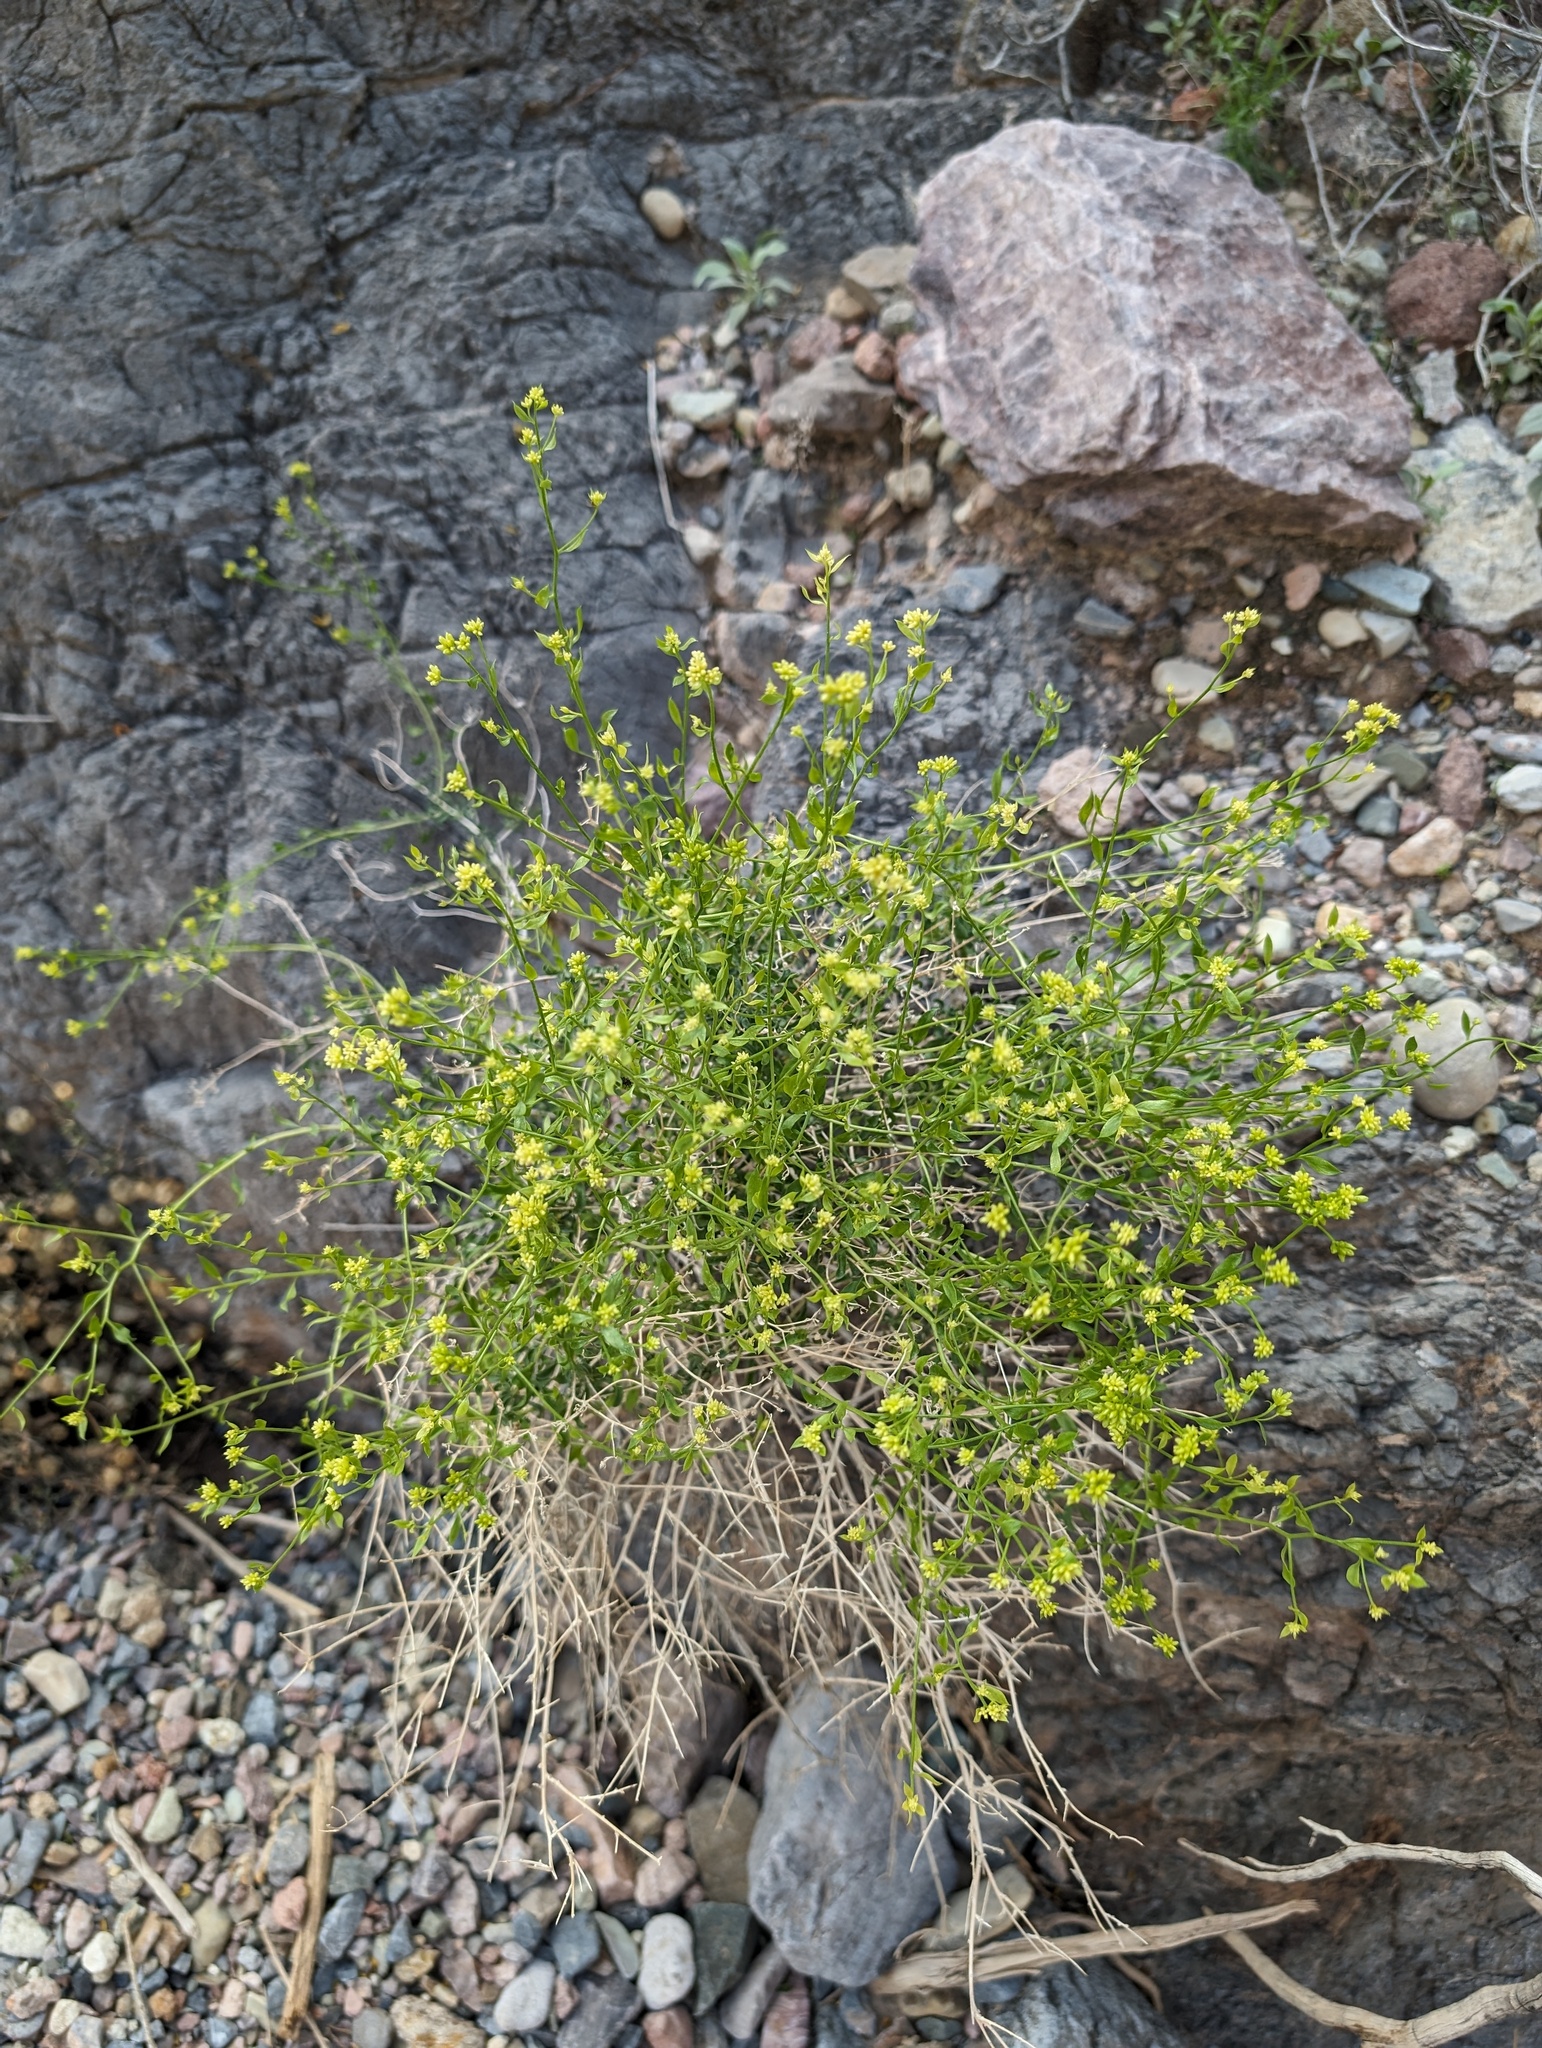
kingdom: Plantae
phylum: Tracheophyta
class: Magnoliopsida
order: Asterales
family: Asteraceae
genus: Amphipappus
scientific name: Amphipappus fremontii
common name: Fremont's chaffbush
